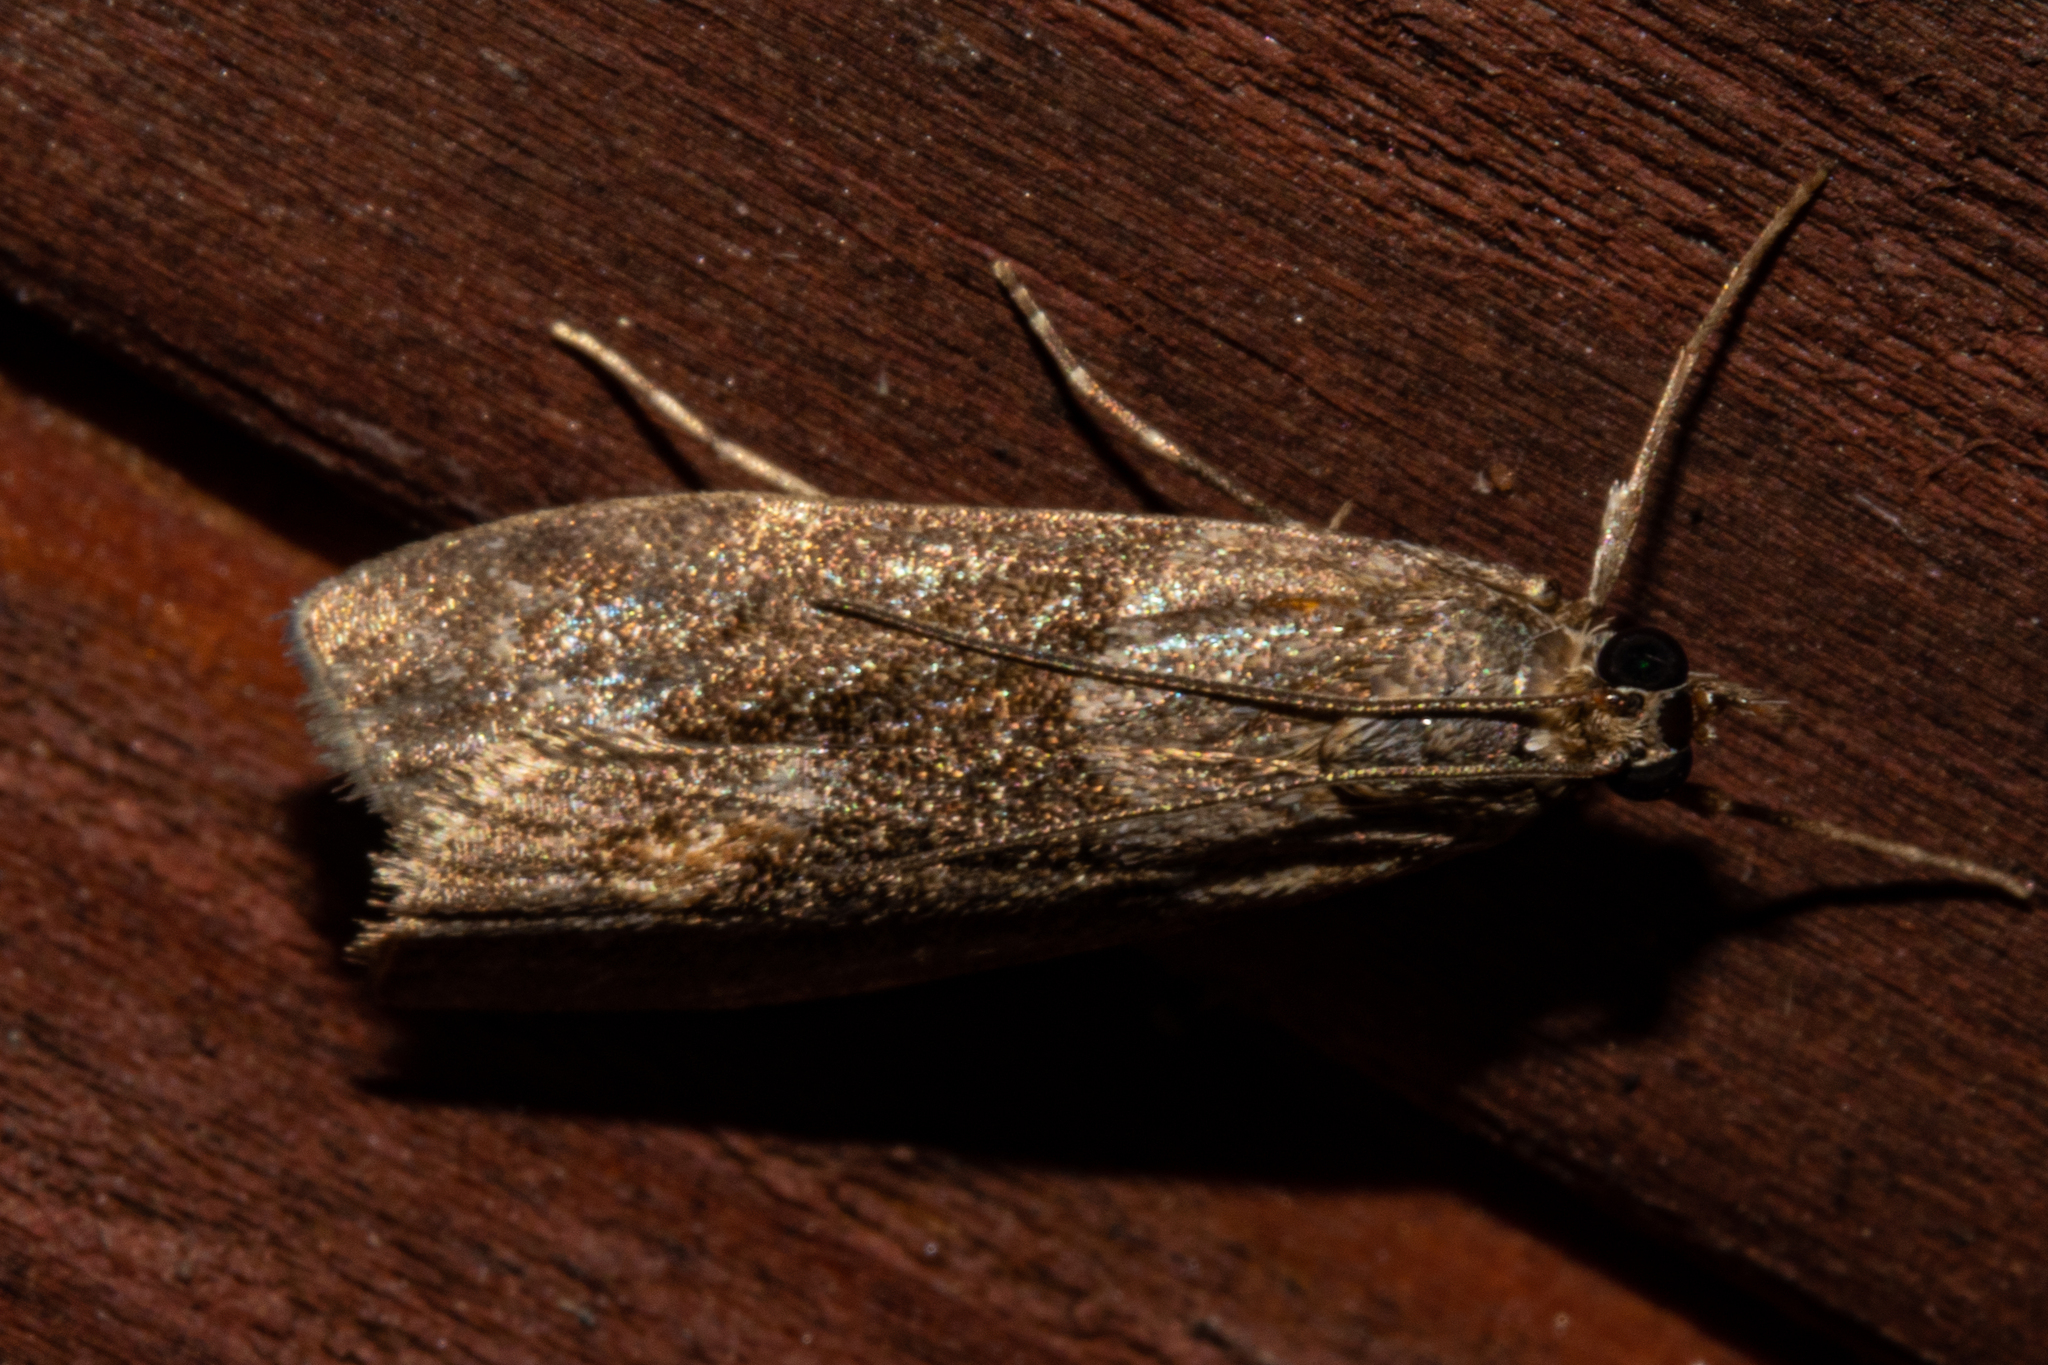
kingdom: Animalia
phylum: Arthropoda
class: Insecta
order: Lepidoptera
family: Crambidae
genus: Eudonia
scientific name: Eudonia submarginalis
